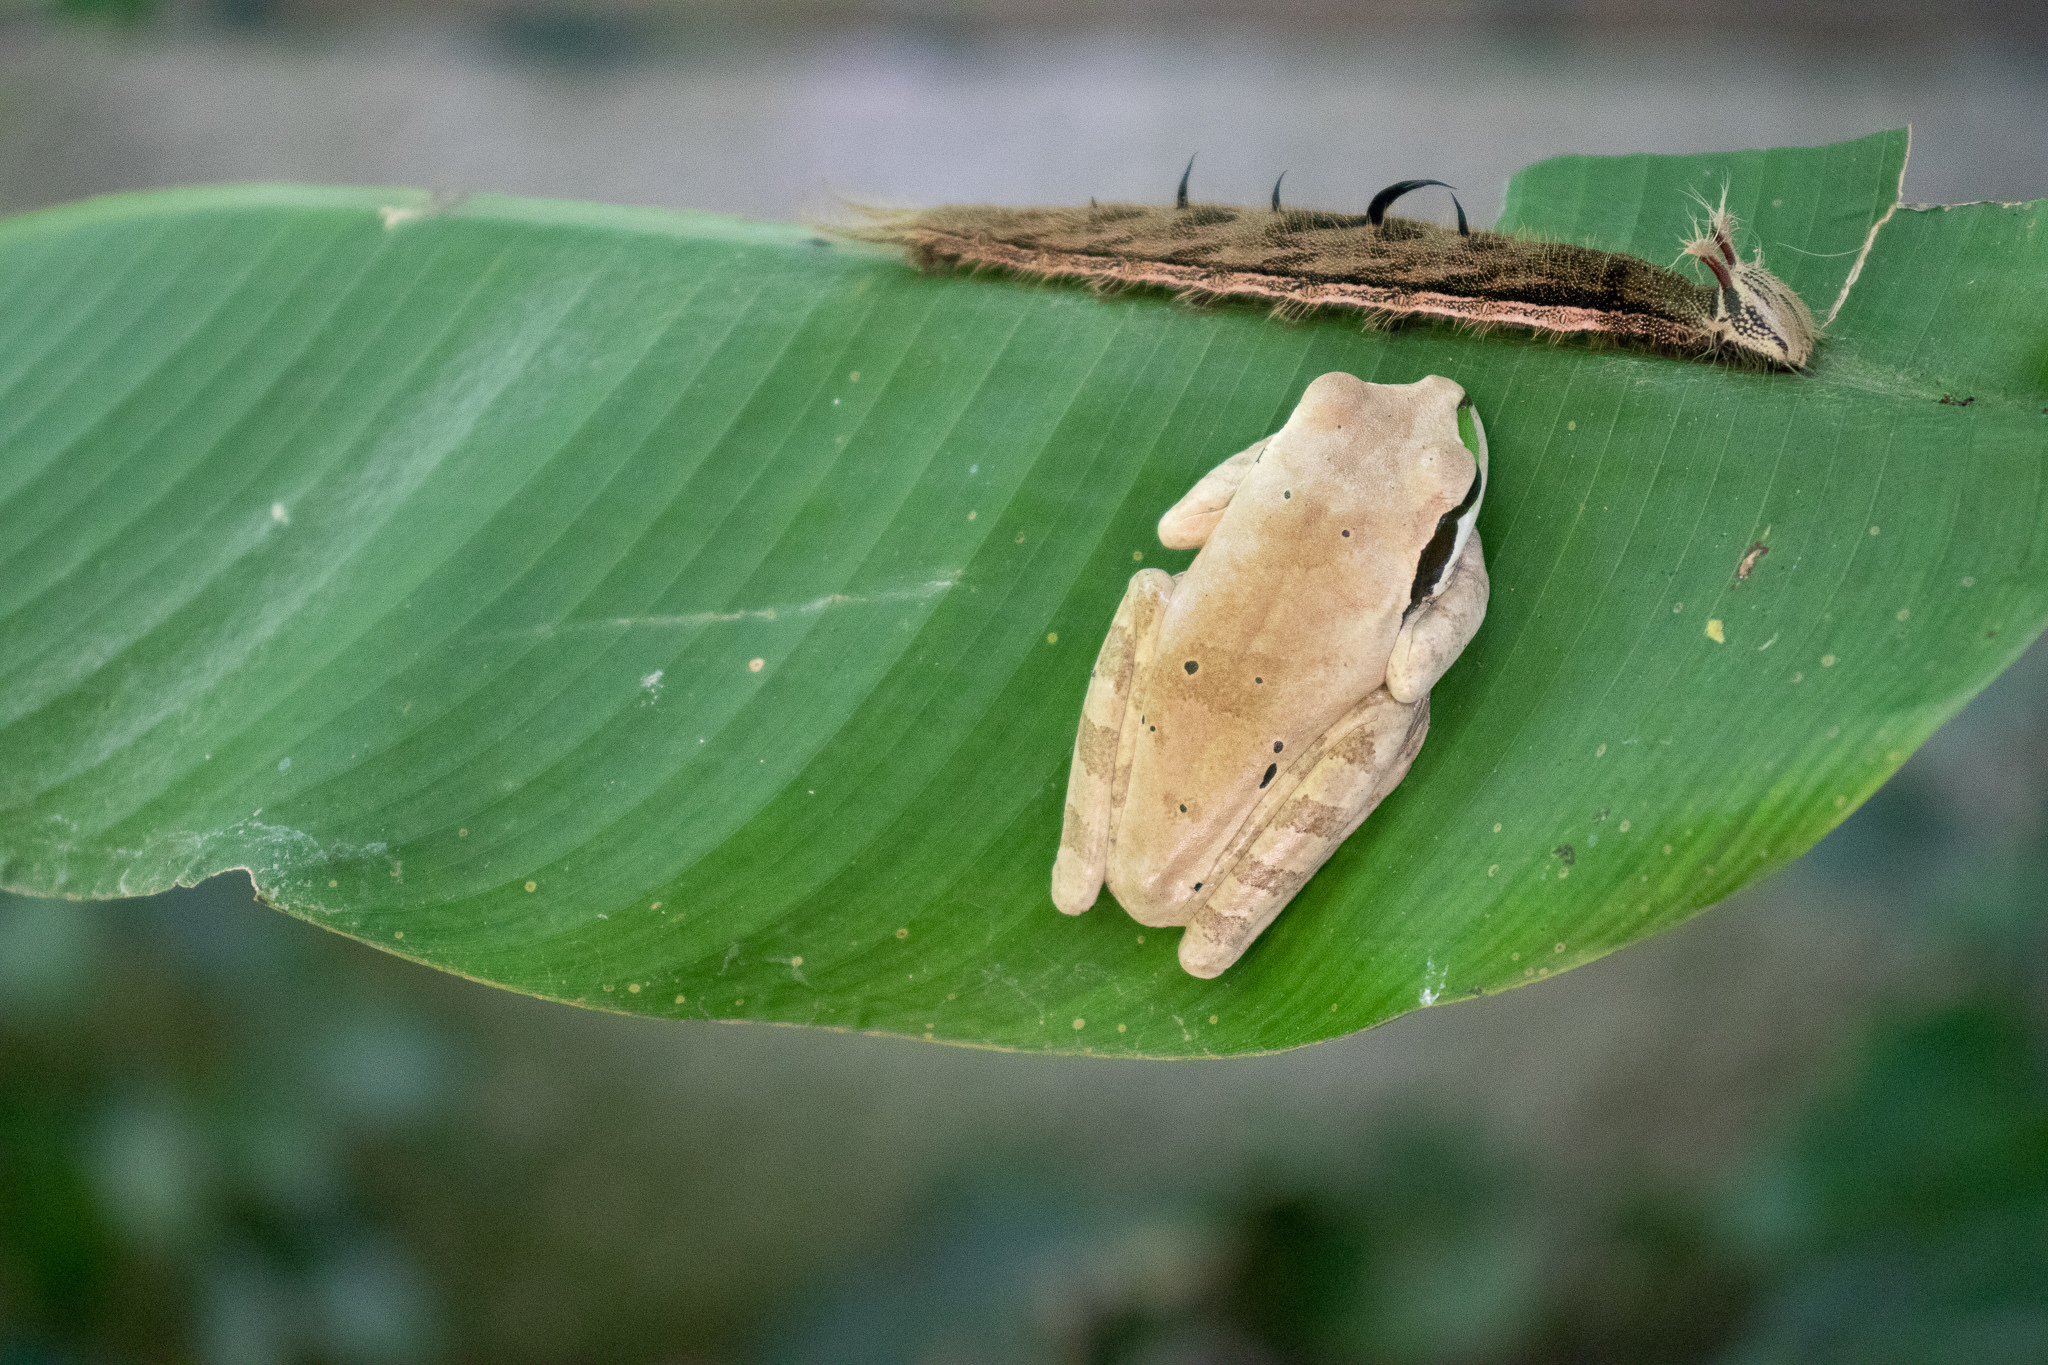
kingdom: Animalia
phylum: Chordata
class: Amphibia
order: Anura
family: Hylidae
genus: Smilisca
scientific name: Smilisca phaeota
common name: Central american smilisca
